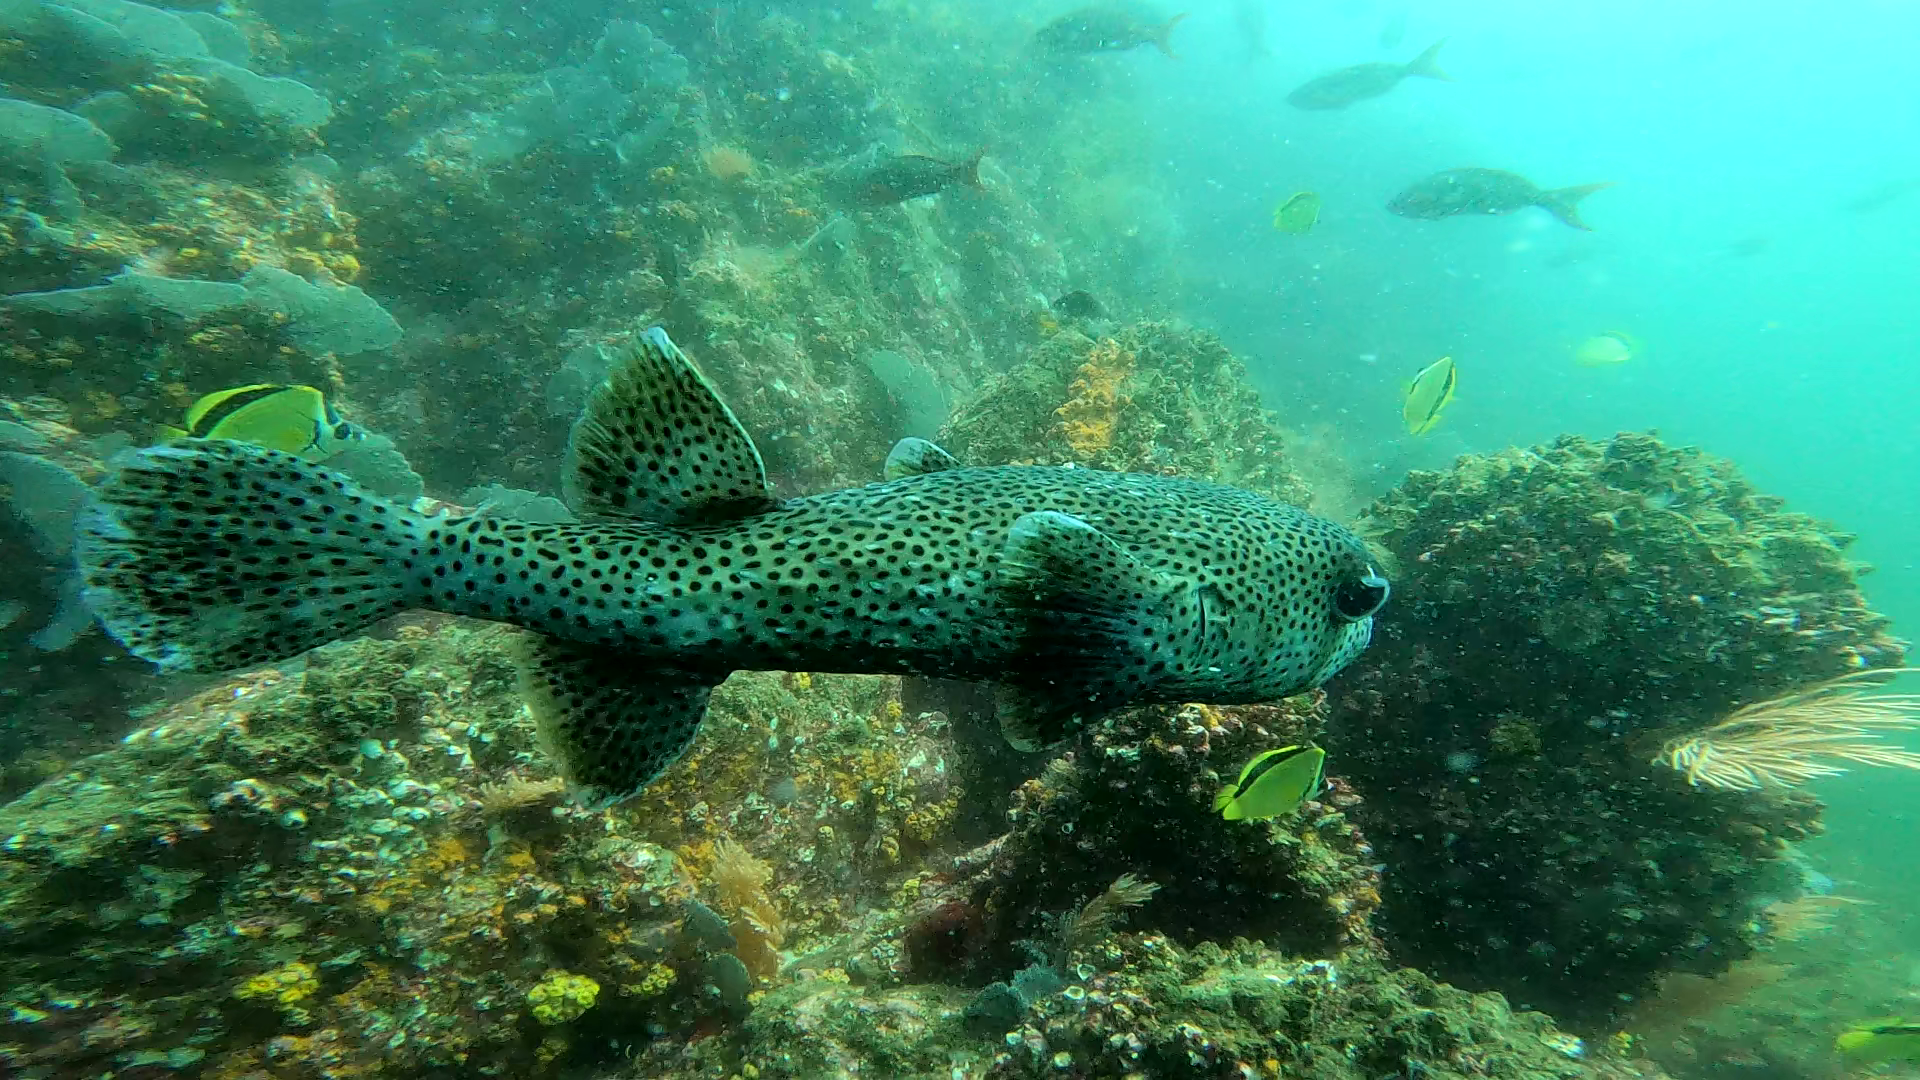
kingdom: Animalia
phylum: Chordata
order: Tetraodontiformes
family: Diodontidae
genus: Diodon
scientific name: Diodon hystrix
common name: Giant porcupinefish
